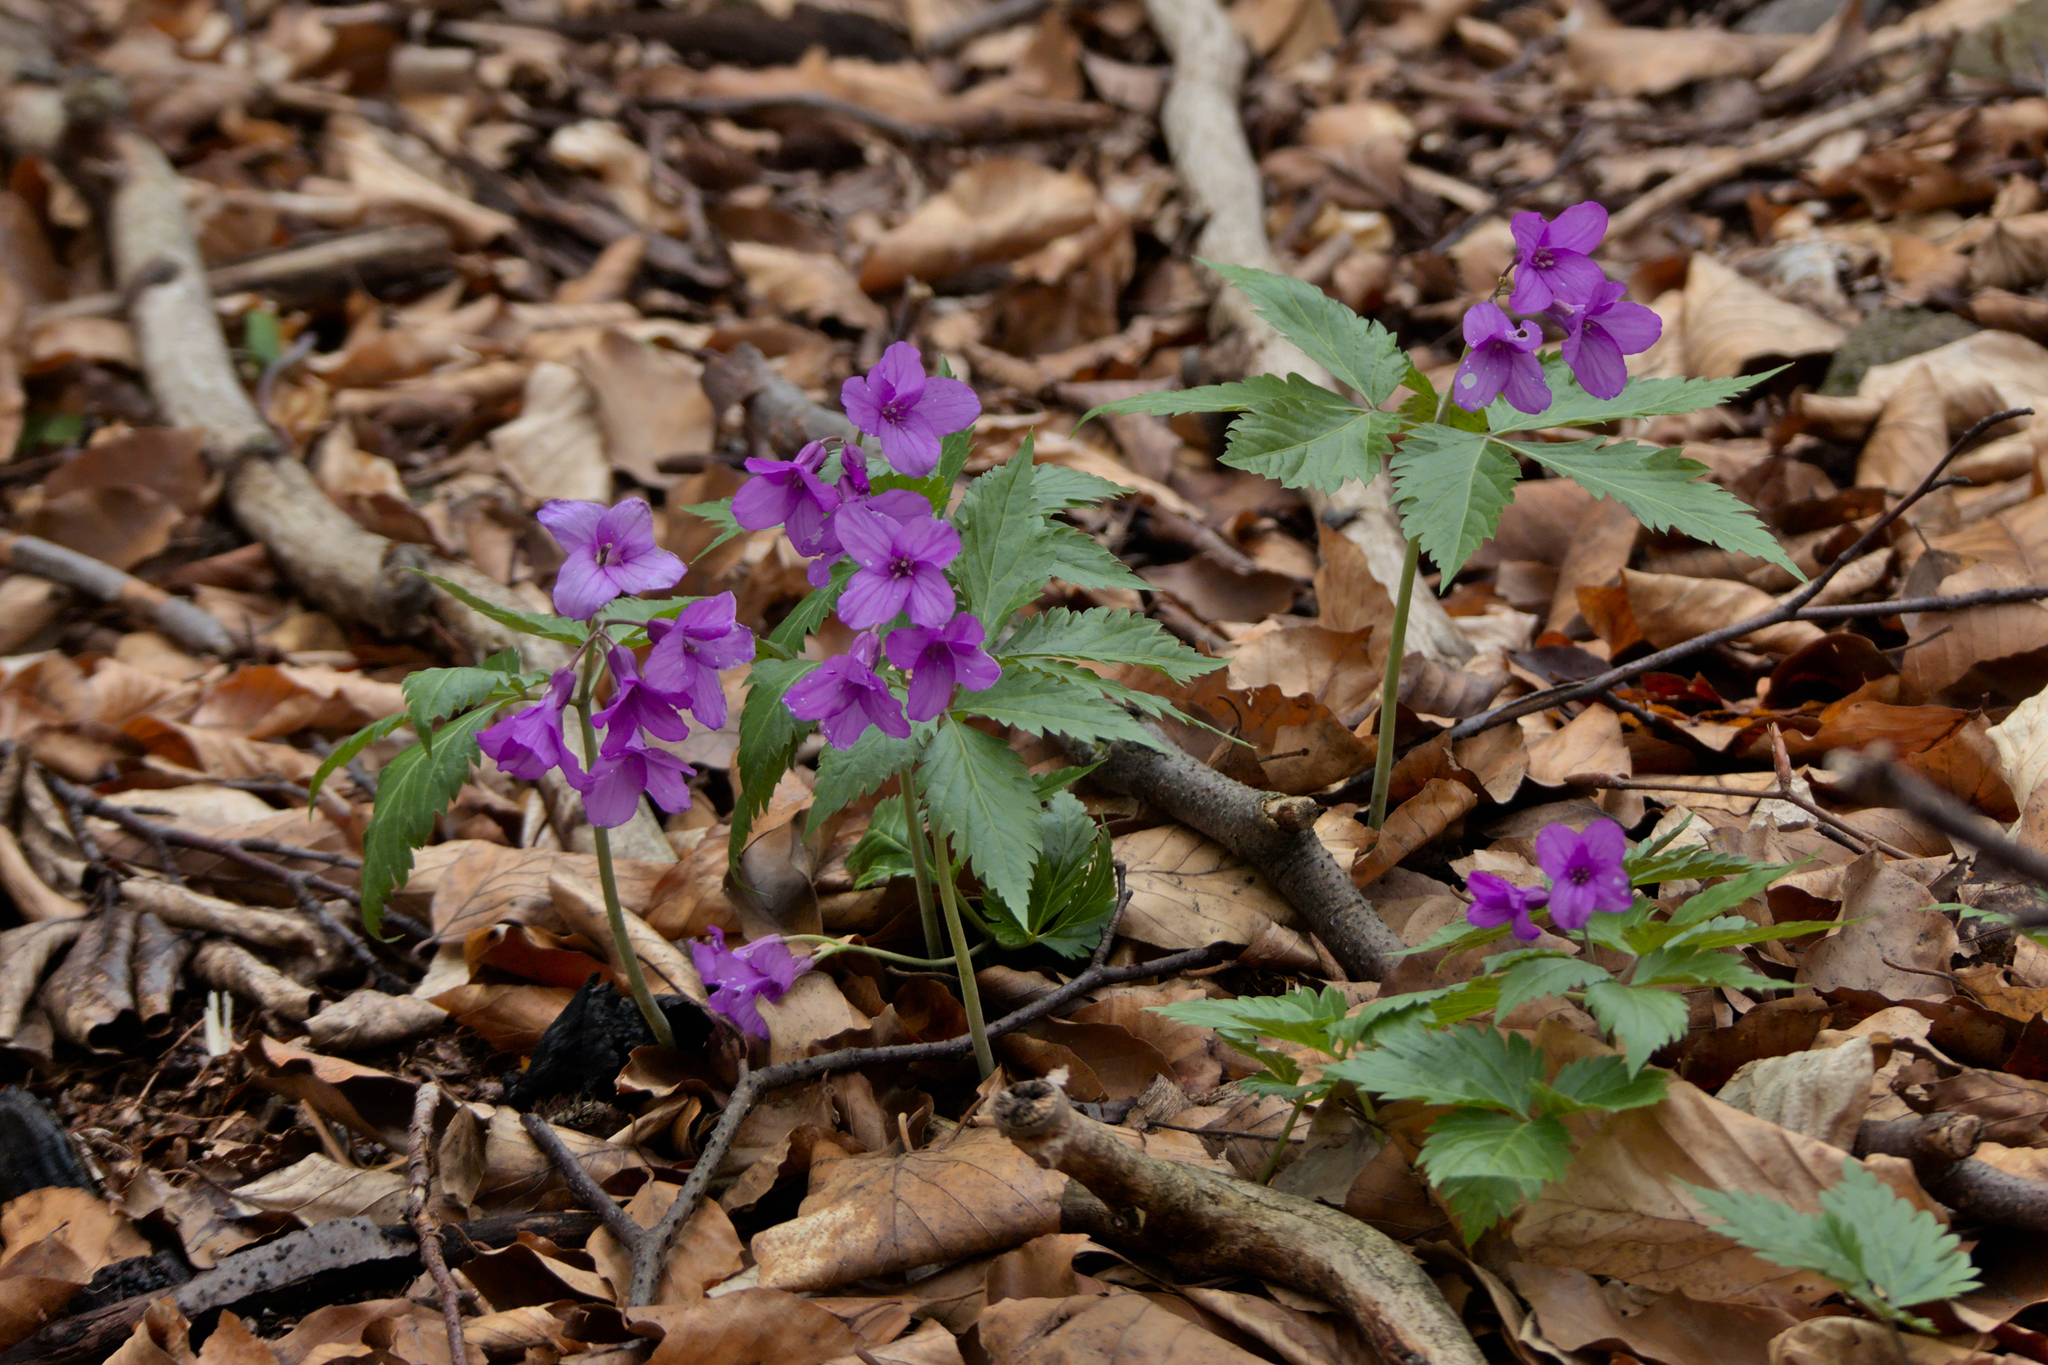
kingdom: Plantae
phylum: Tracheophyta
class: Magnoliopsida
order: Brassicales
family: Brassicaceae
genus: Cardamine
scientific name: Cardamine glanduligera
